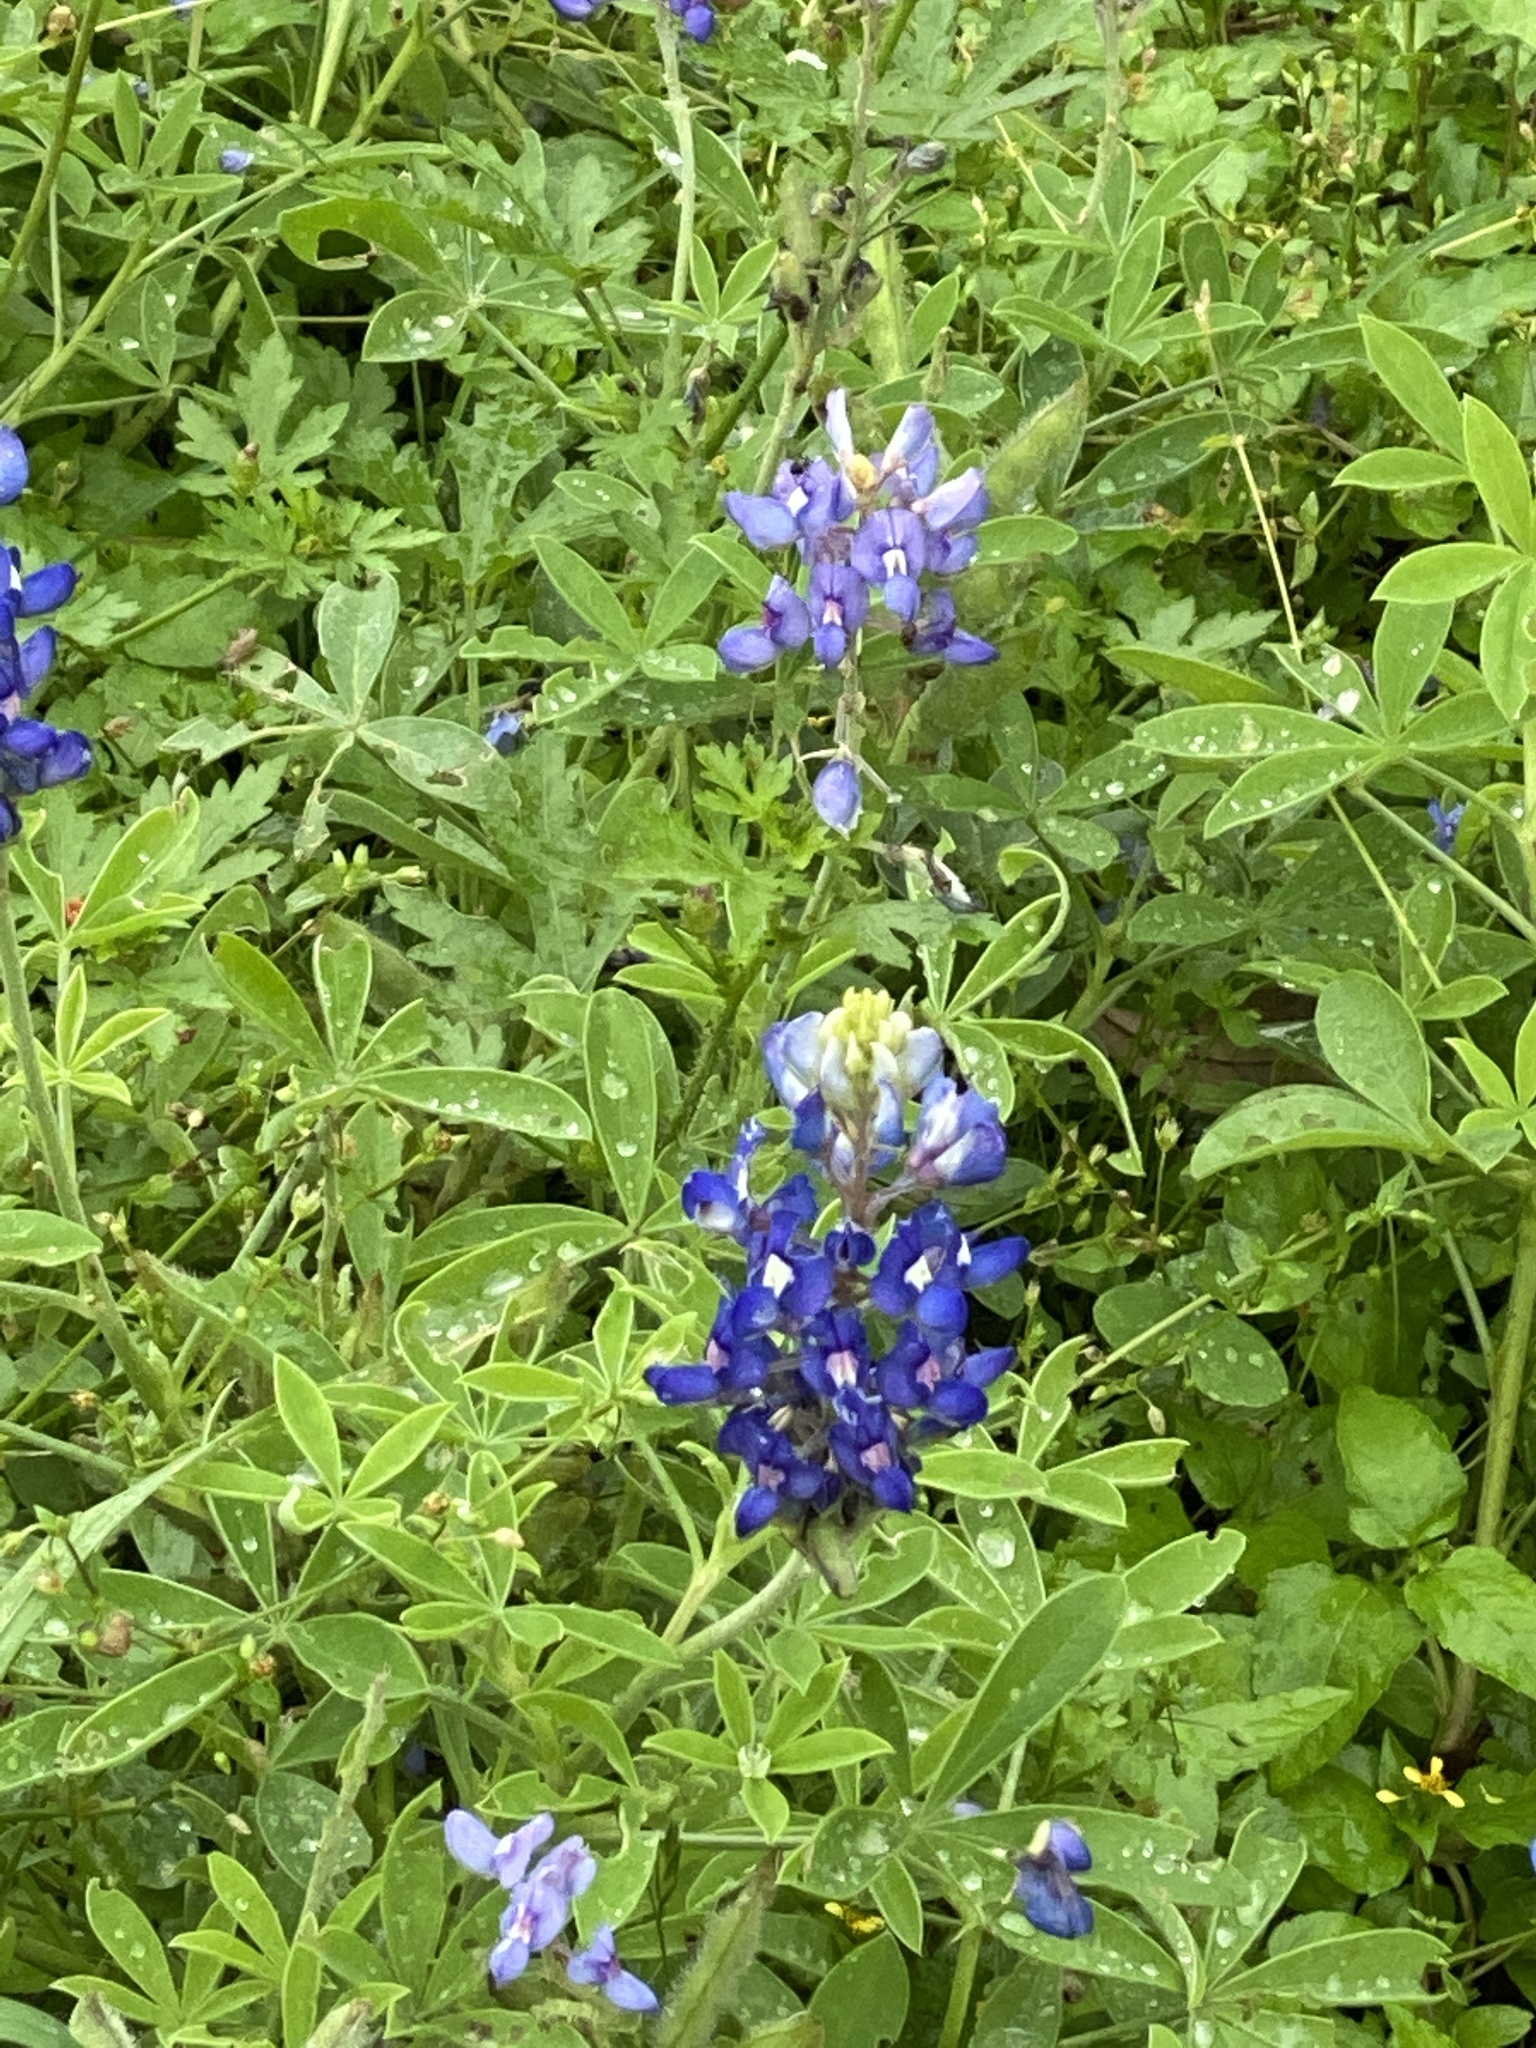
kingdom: Plantae
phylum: Tracheophyta
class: Magnoliopsida
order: Fabales
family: Fabaceae
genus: Lupinus
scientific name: Lupinus texensis
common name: Texas bluebonnet
